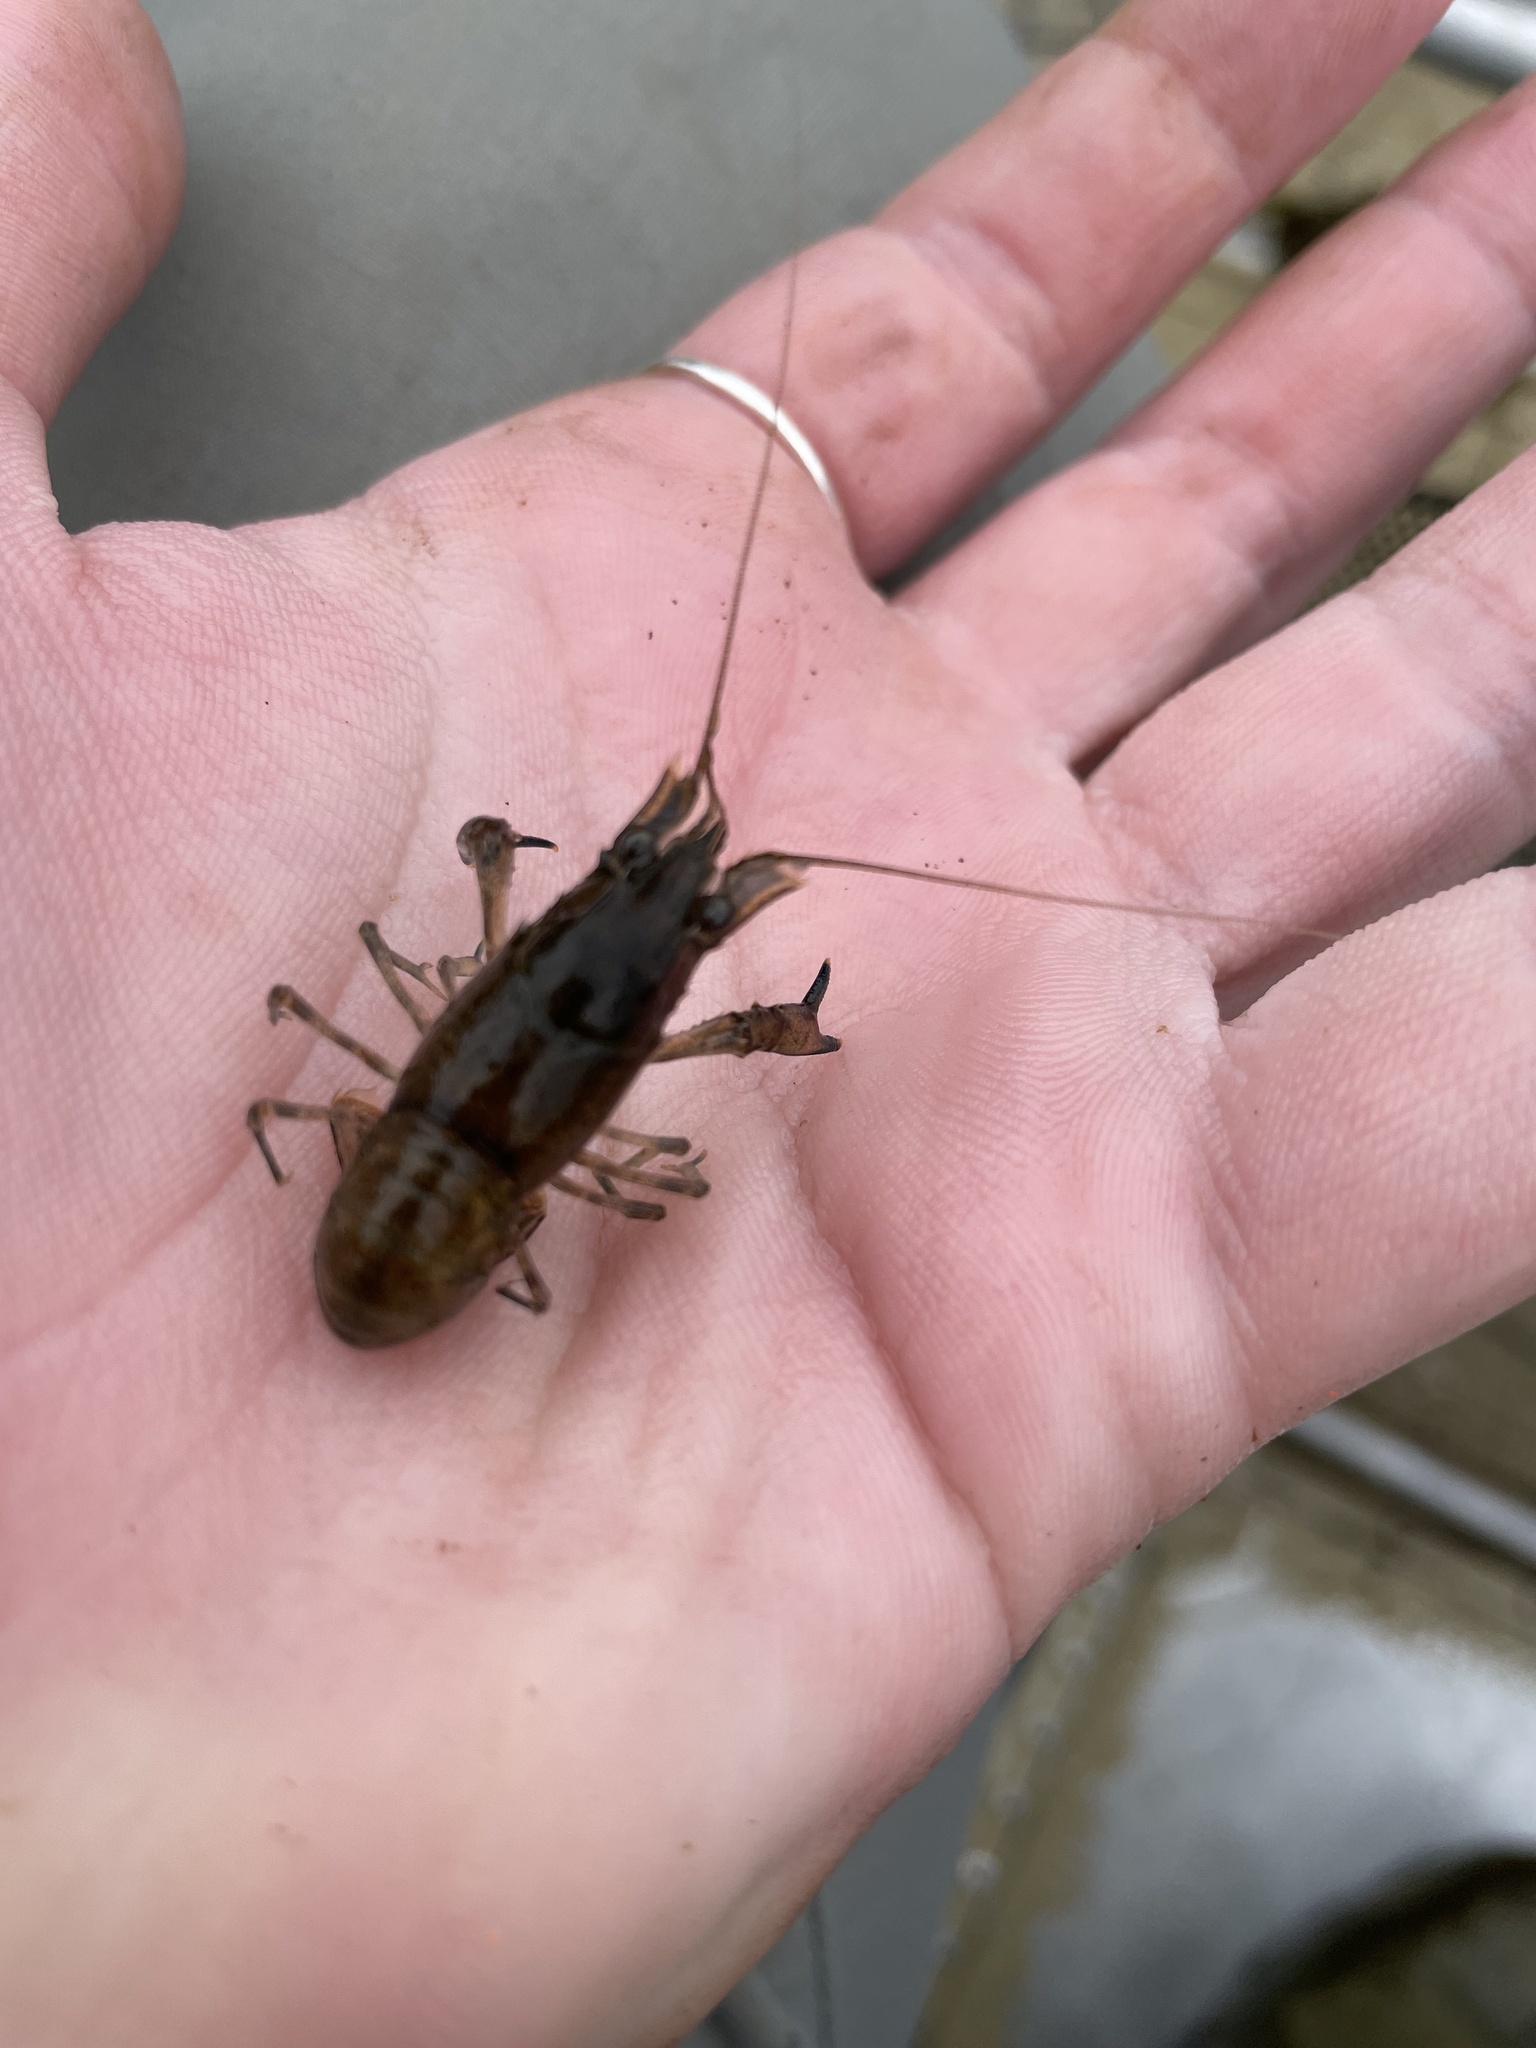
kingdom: Animalia
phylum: Arthropoda
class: Malacostraca
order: Decapoda
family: Cambaridae
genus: Faxonius
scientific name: Faxonius limosus
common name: American crayfish
